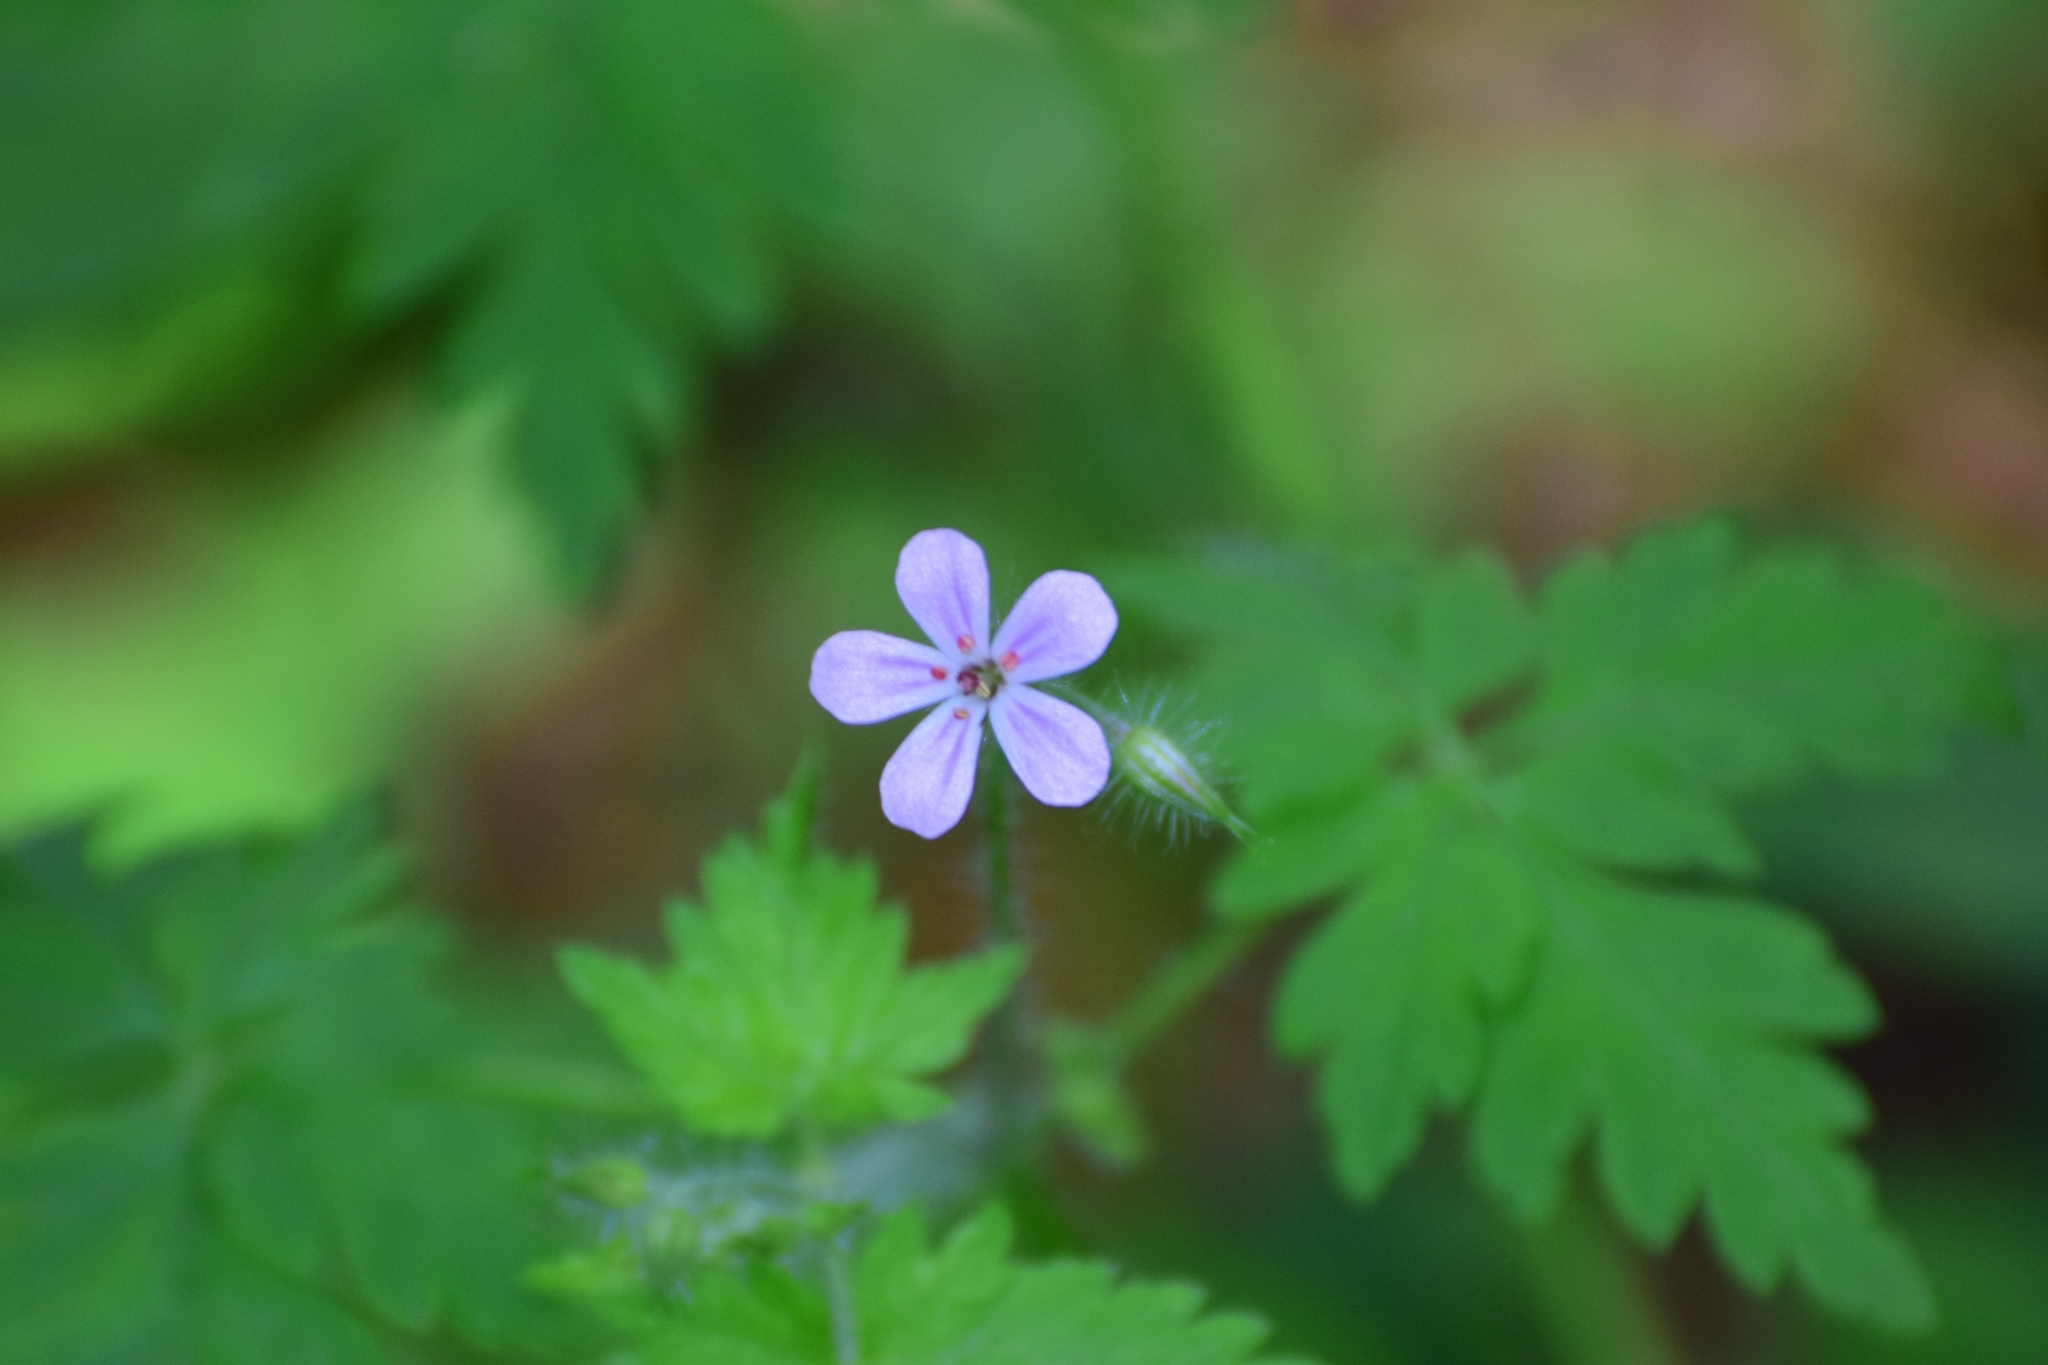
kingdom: Plantae
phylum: Tracheophyta
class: Magnoliopsida
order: Geraniales
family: Geraniaceae
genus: Geranium
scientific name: Geranium robertianum
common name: Herb-robert
